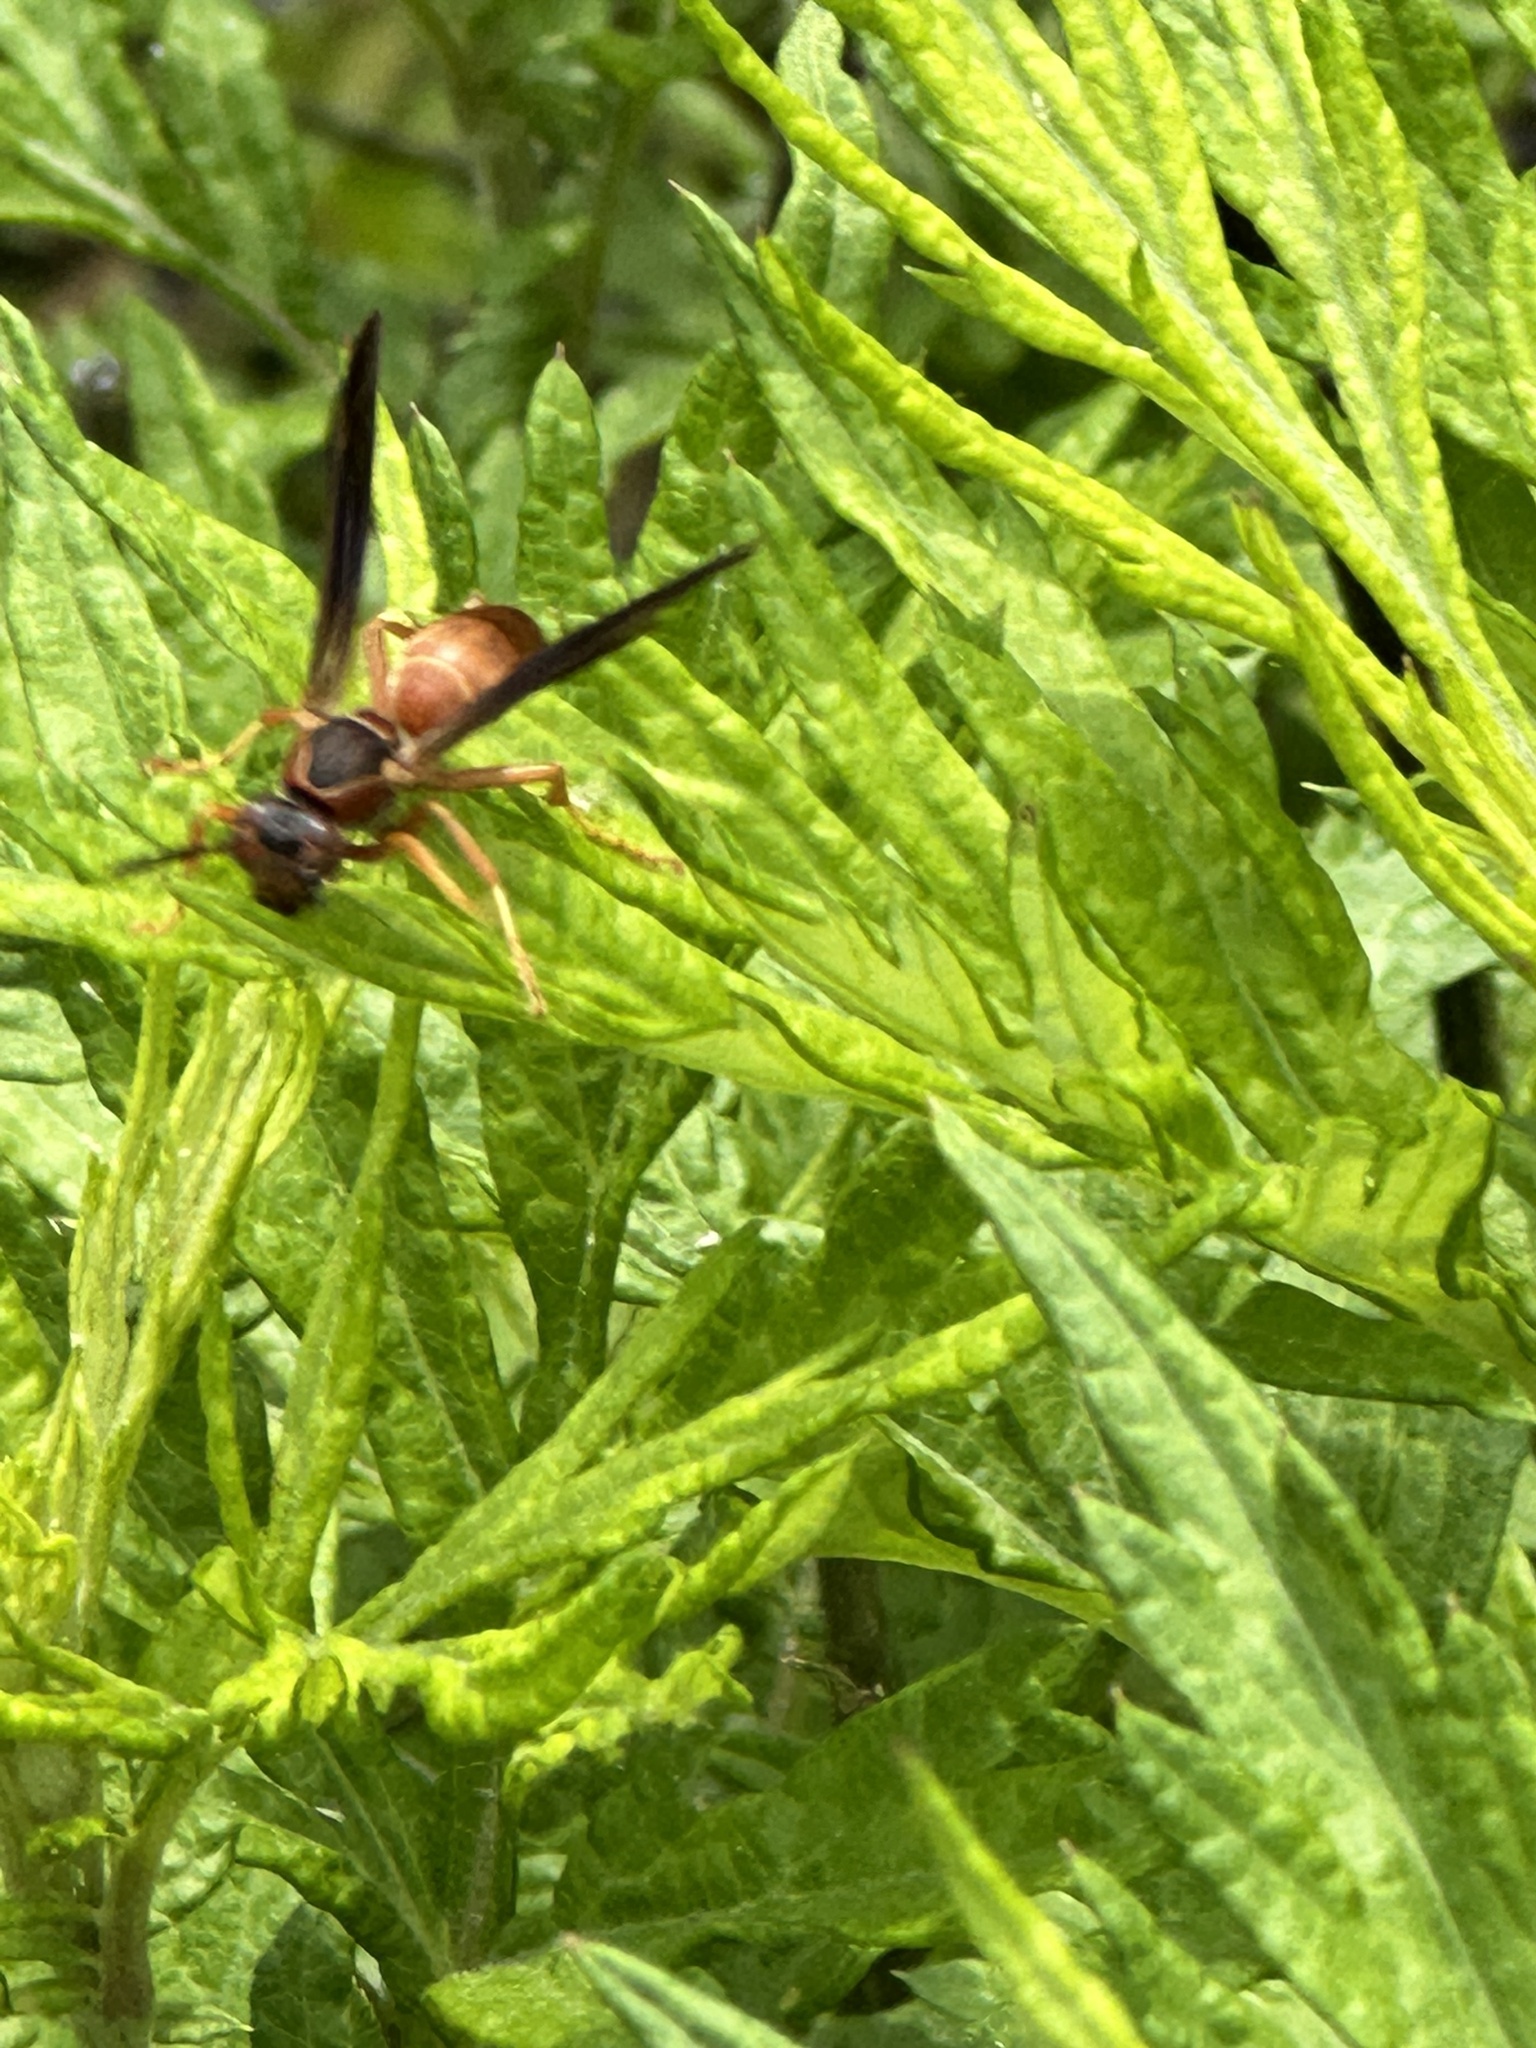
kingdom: Animalia
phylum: Arthropoda
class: Insecta
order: Hymenoptera
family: Eumenidae
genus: Polistes
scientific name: Polistes carolina
